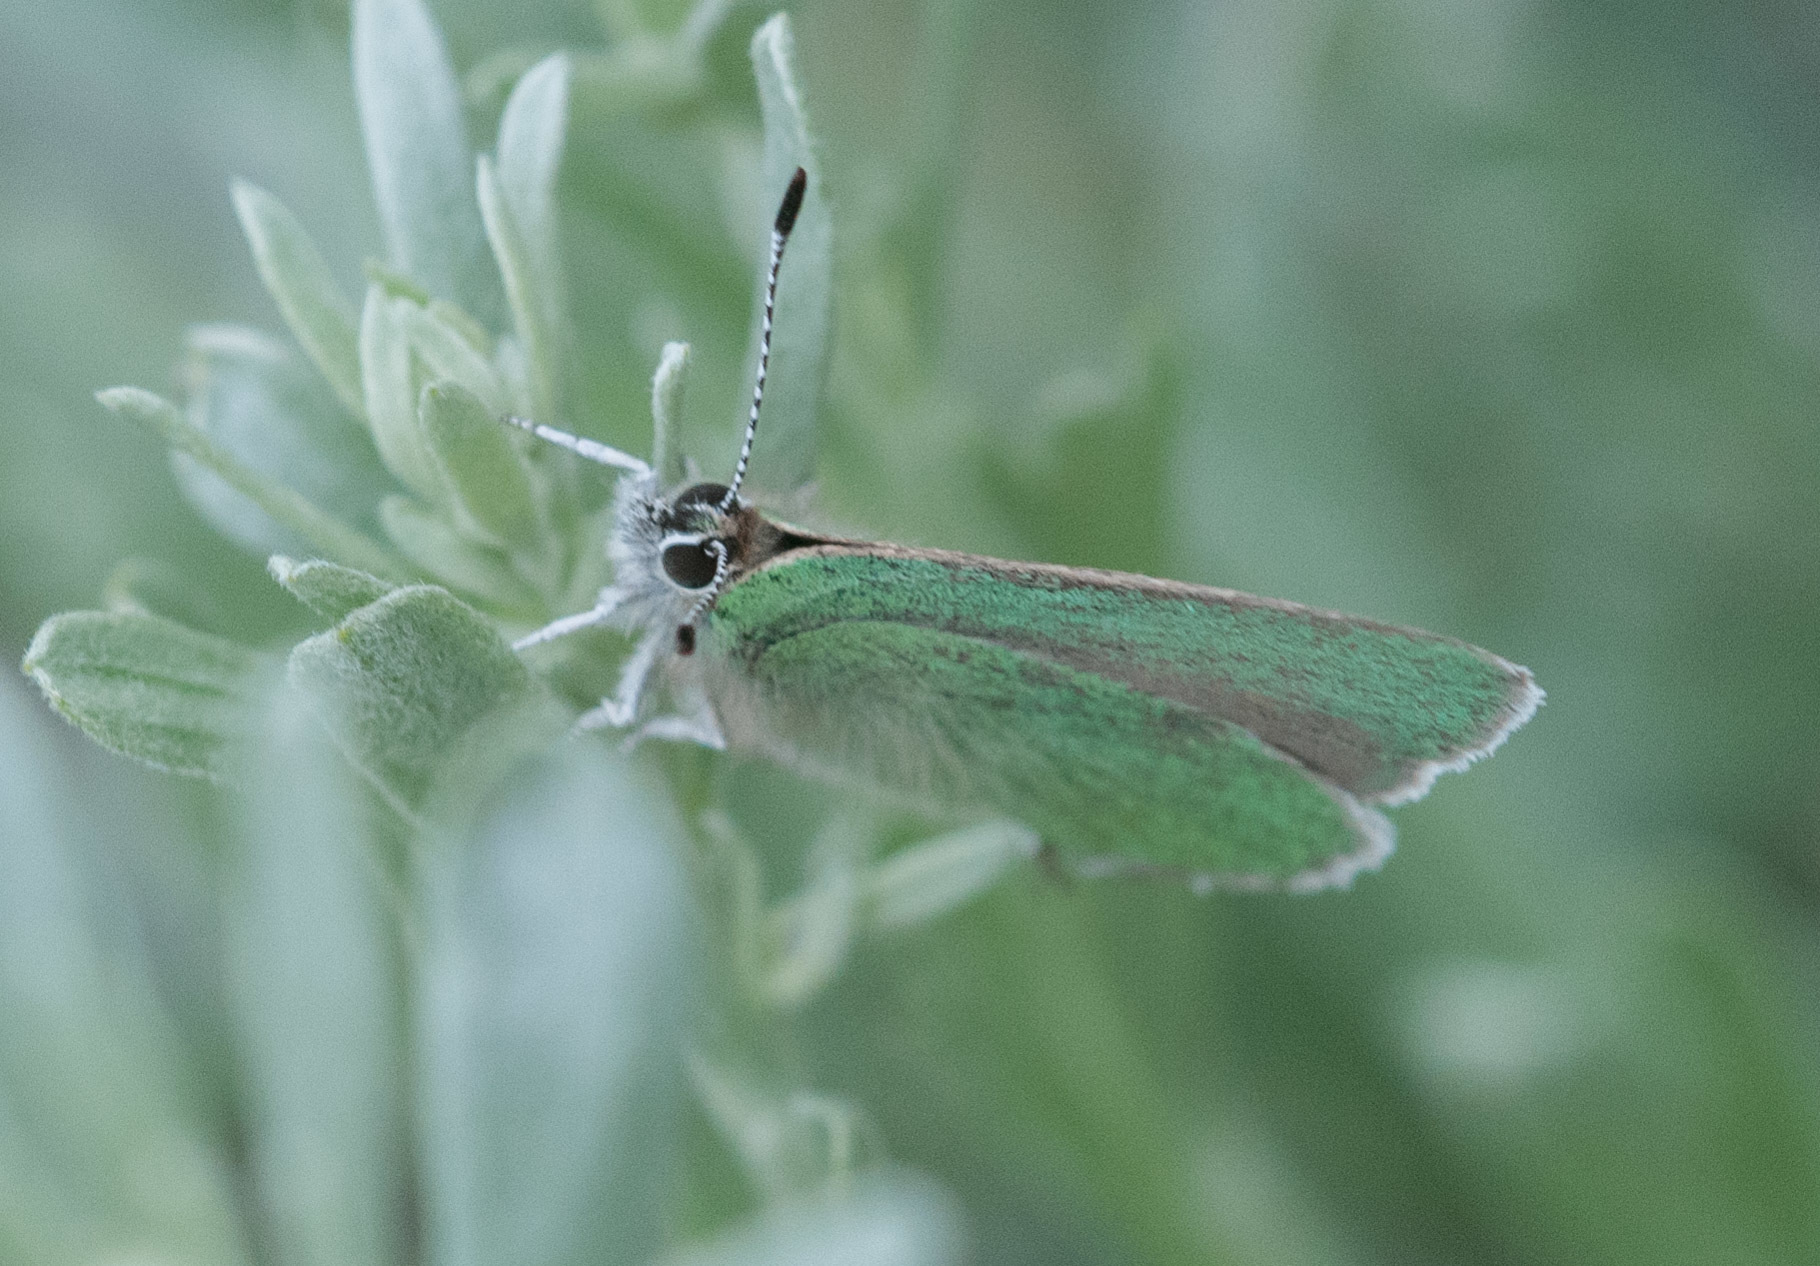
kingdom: Animalia
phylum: Arthropoda
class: Insecta
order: Lepidoptera
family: Lycaenidae
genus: Callophrys
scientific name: Callophrys affinis
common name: Western green hairstreak
